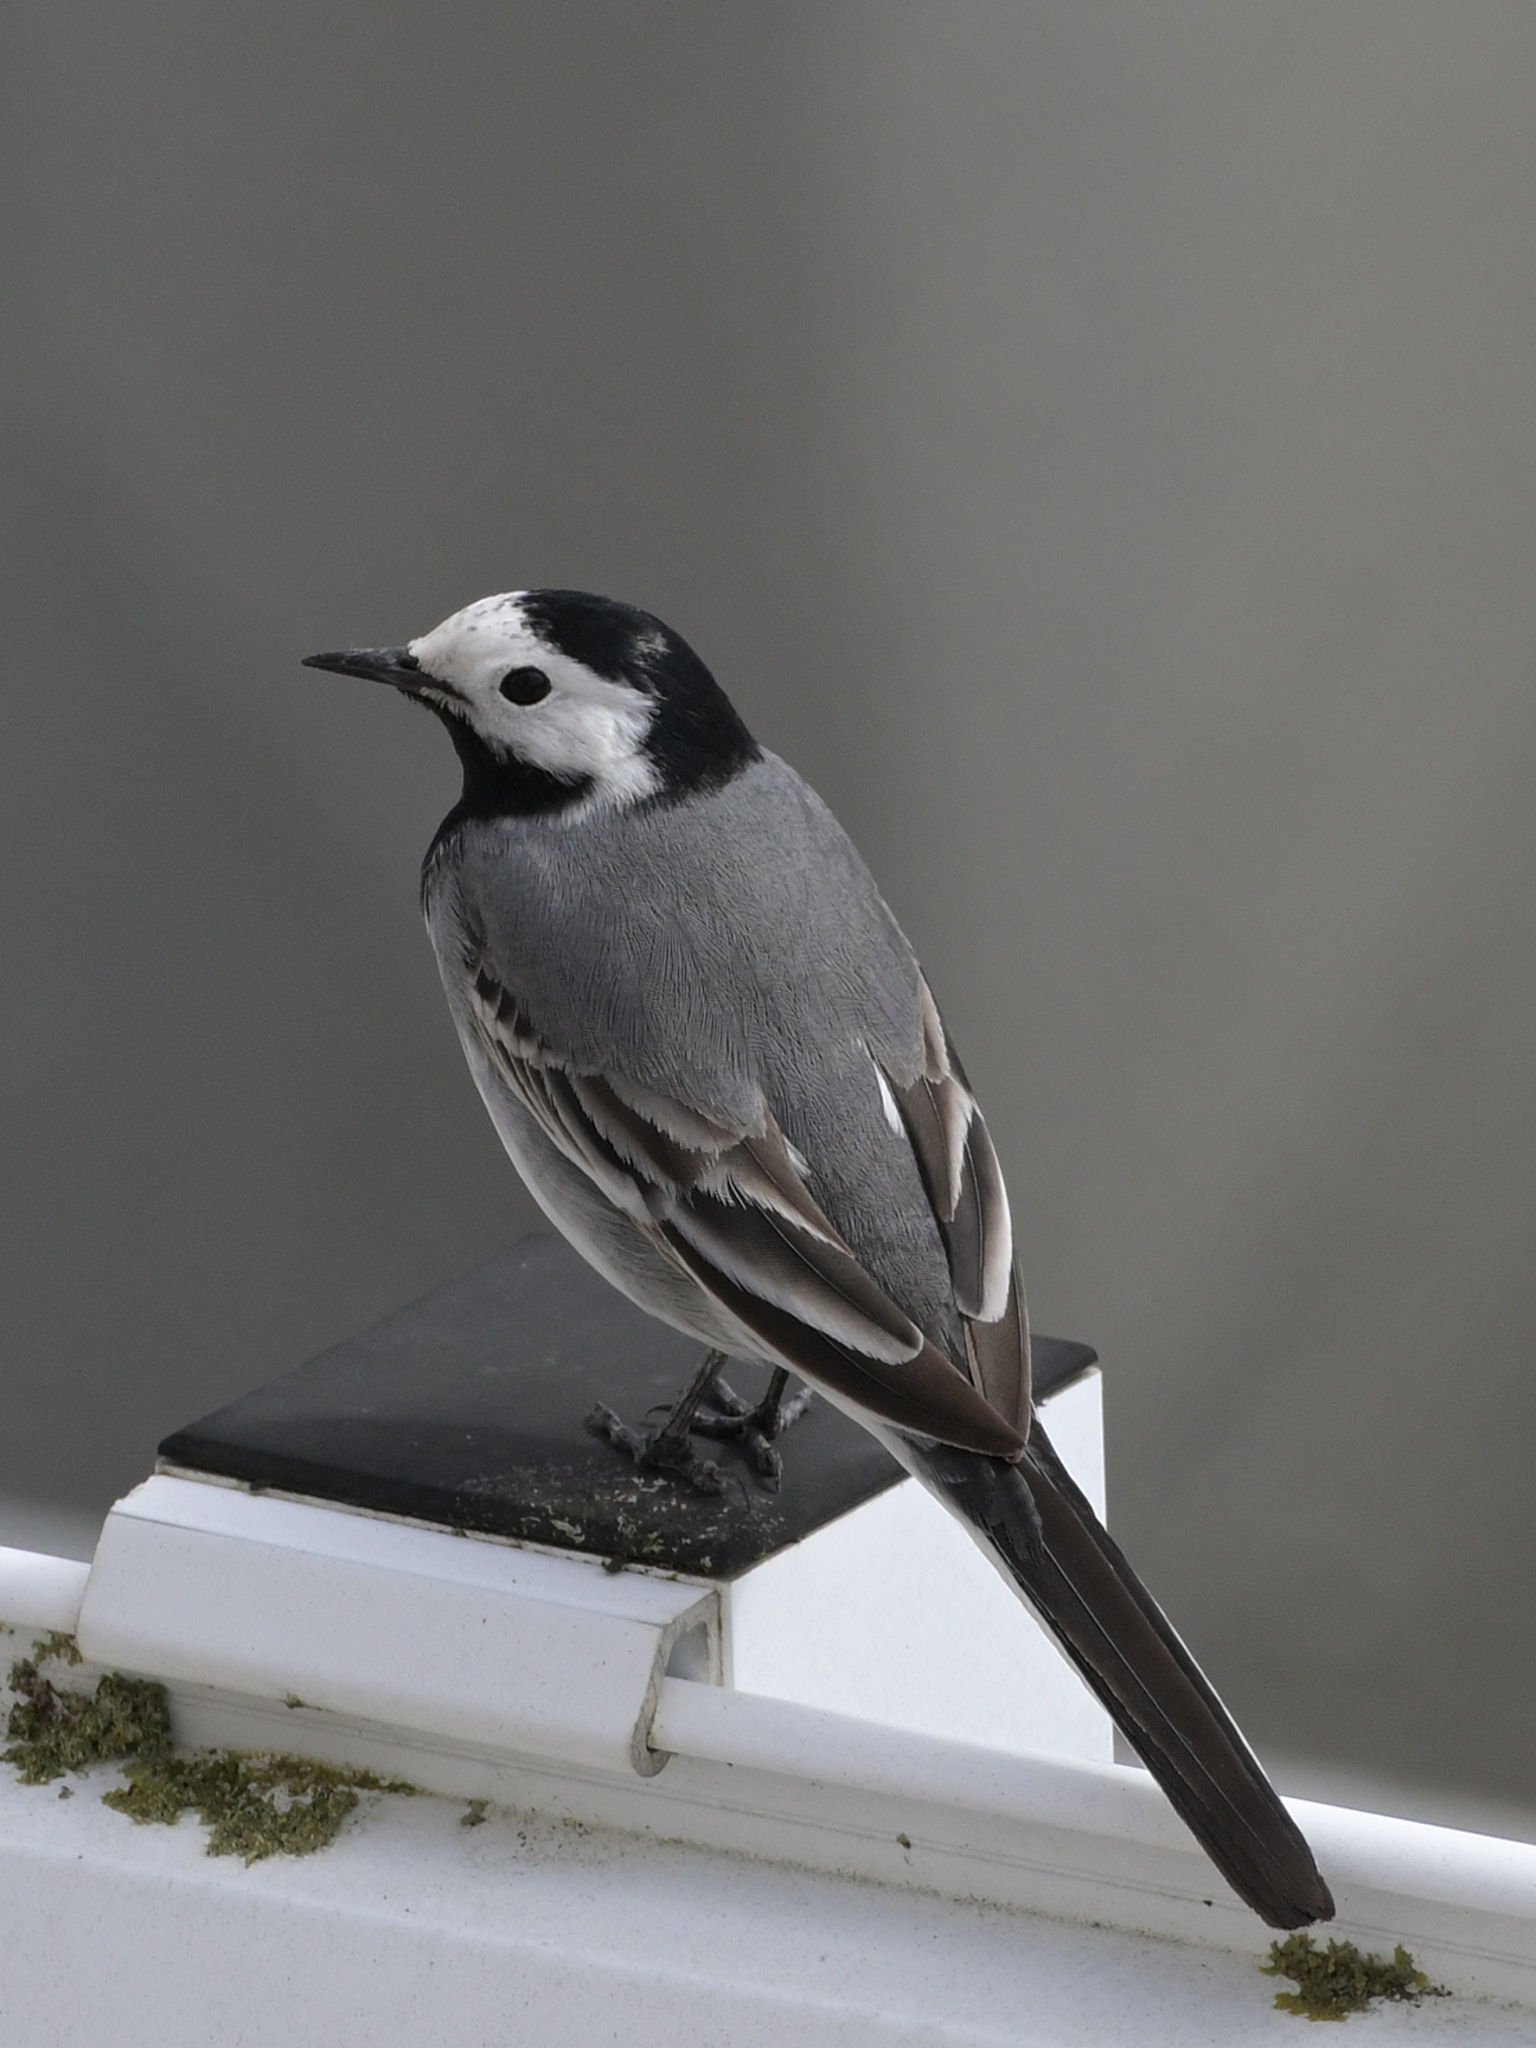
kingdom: Animalia
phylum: Chordata
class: Aves
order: Passeriformes
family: Motacillidae
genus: Motacilla
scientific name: Motacilla alba
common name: White wagtail
